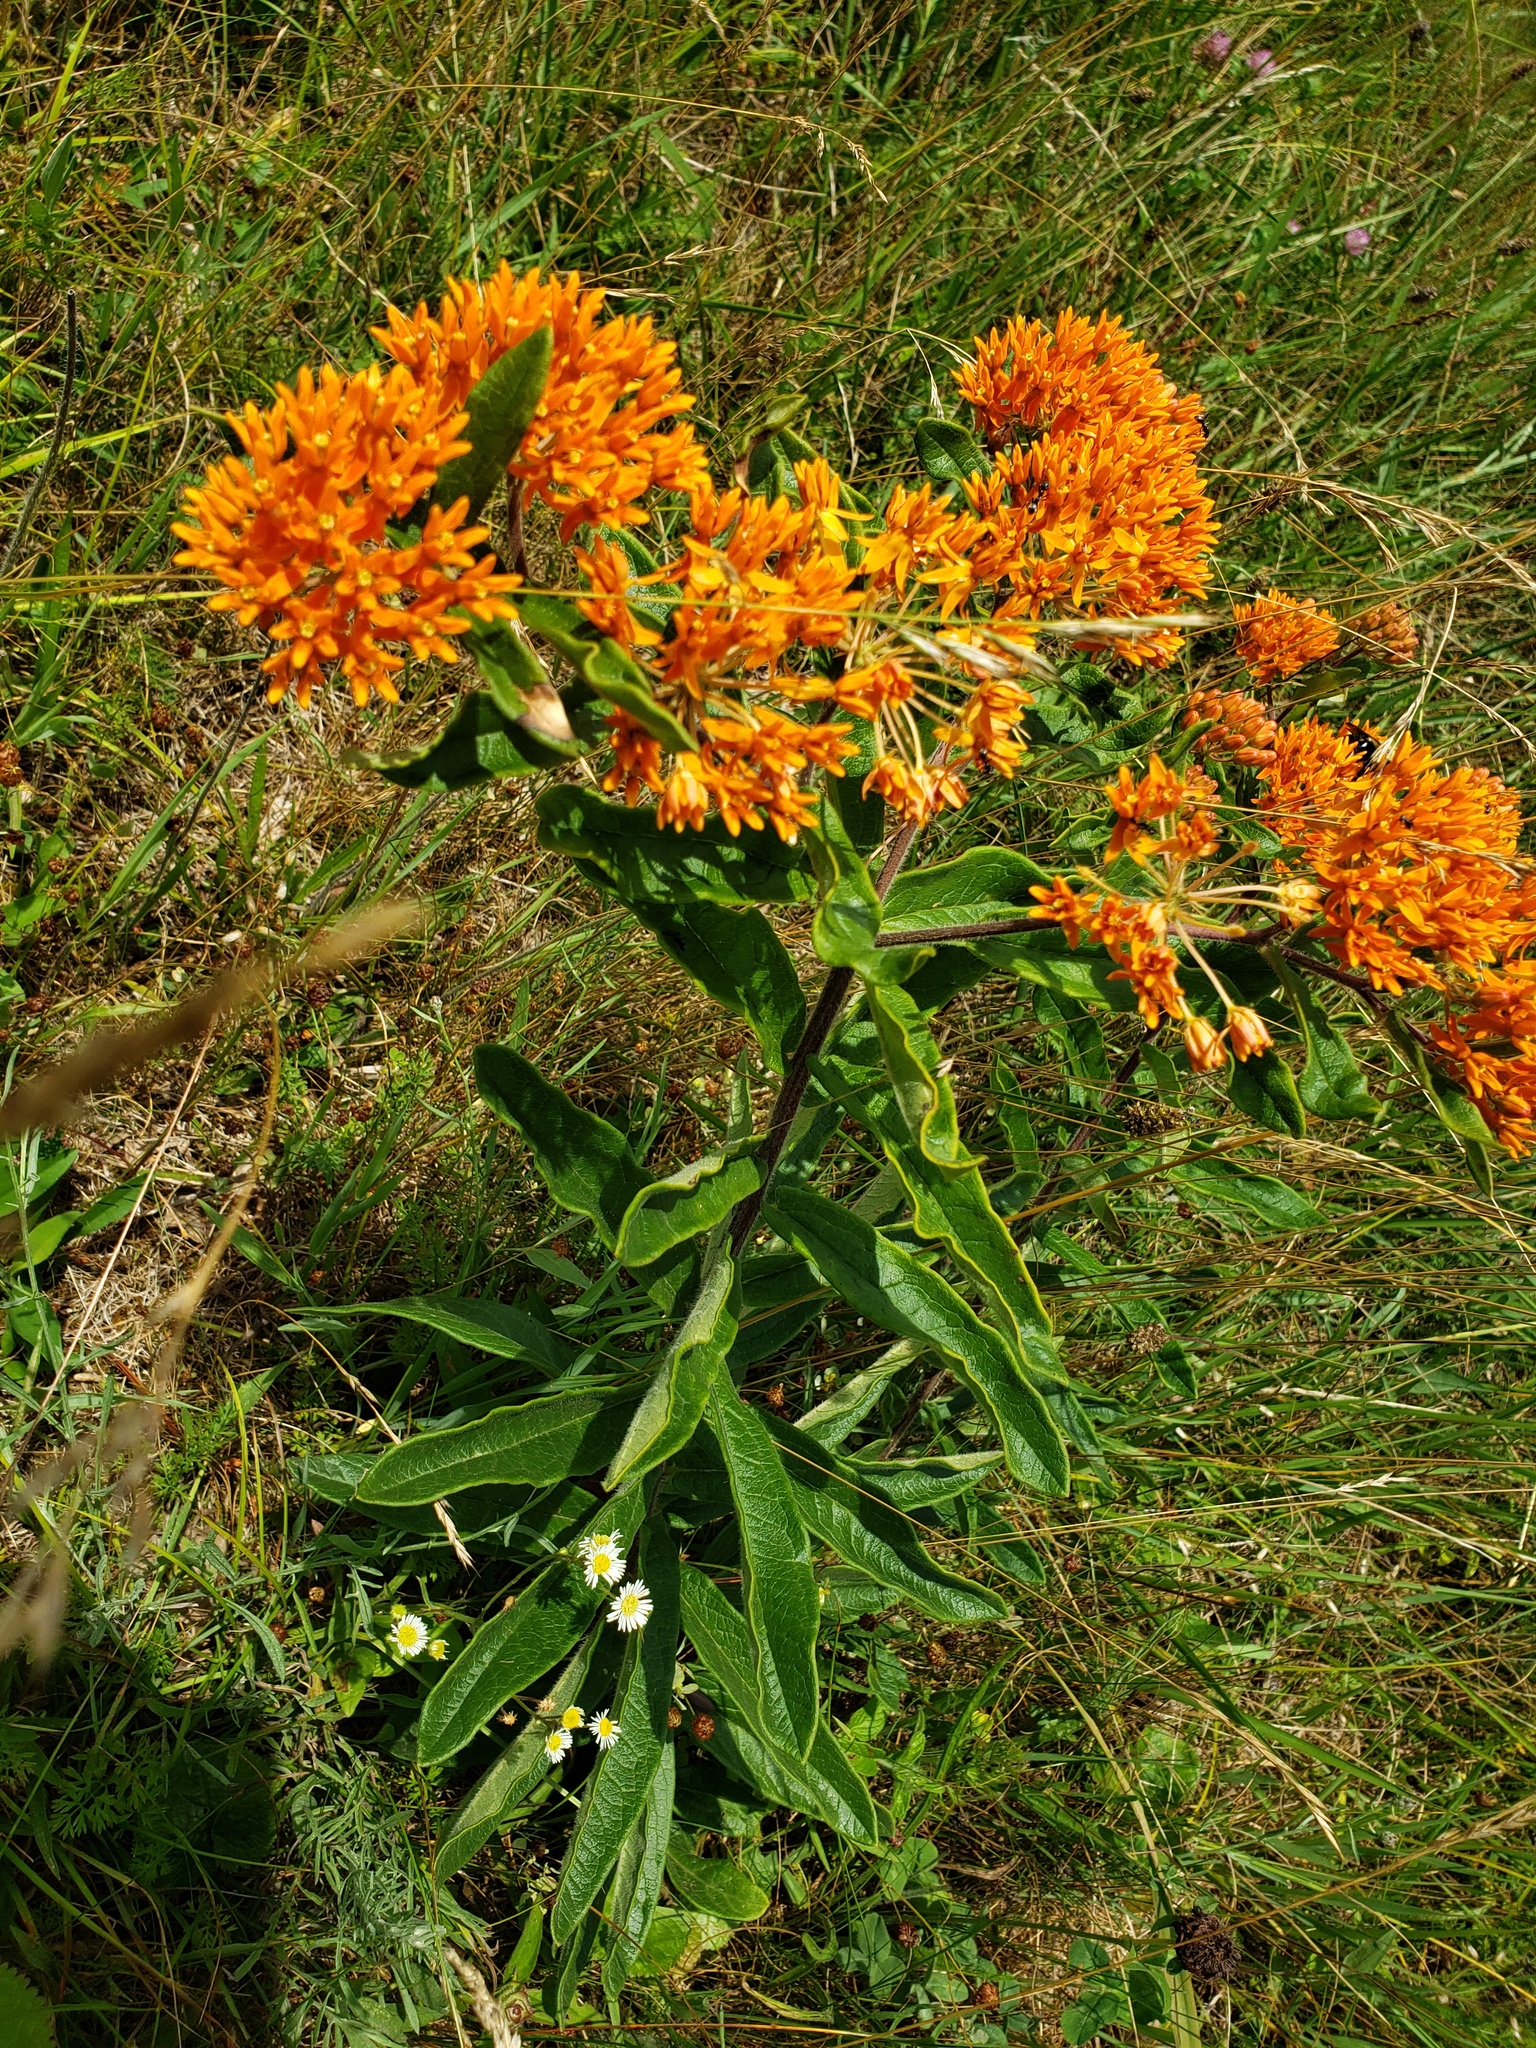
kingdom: Plantae
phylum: Tracheophyta
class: Magnoliopsida
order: Gentianales
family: Apocynaceae
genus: Asclepias
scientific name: Asclepias tuberosa
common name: Butterfly milkweed
